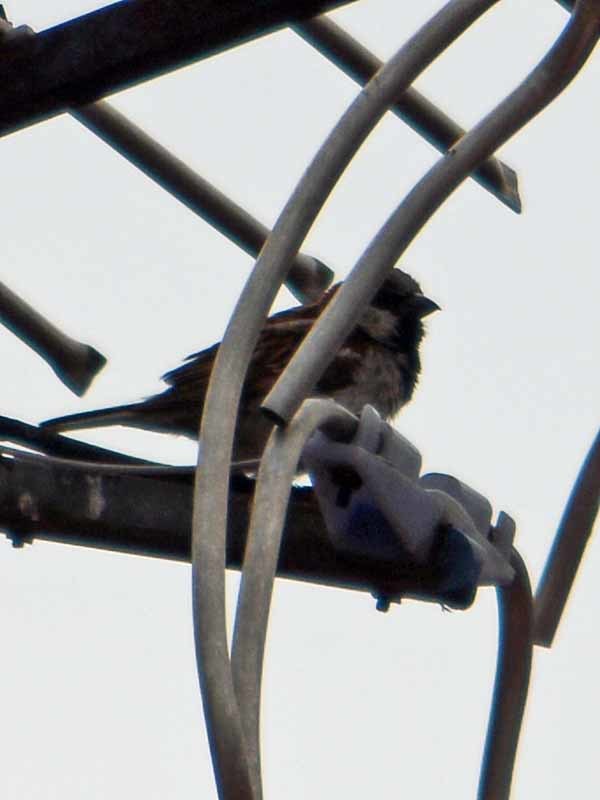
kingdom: Animalia
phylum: Chordata
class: Aves
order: Passeriformes
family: Passeridae
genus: Passer
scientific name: Passer domesticus
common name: House sparrow
